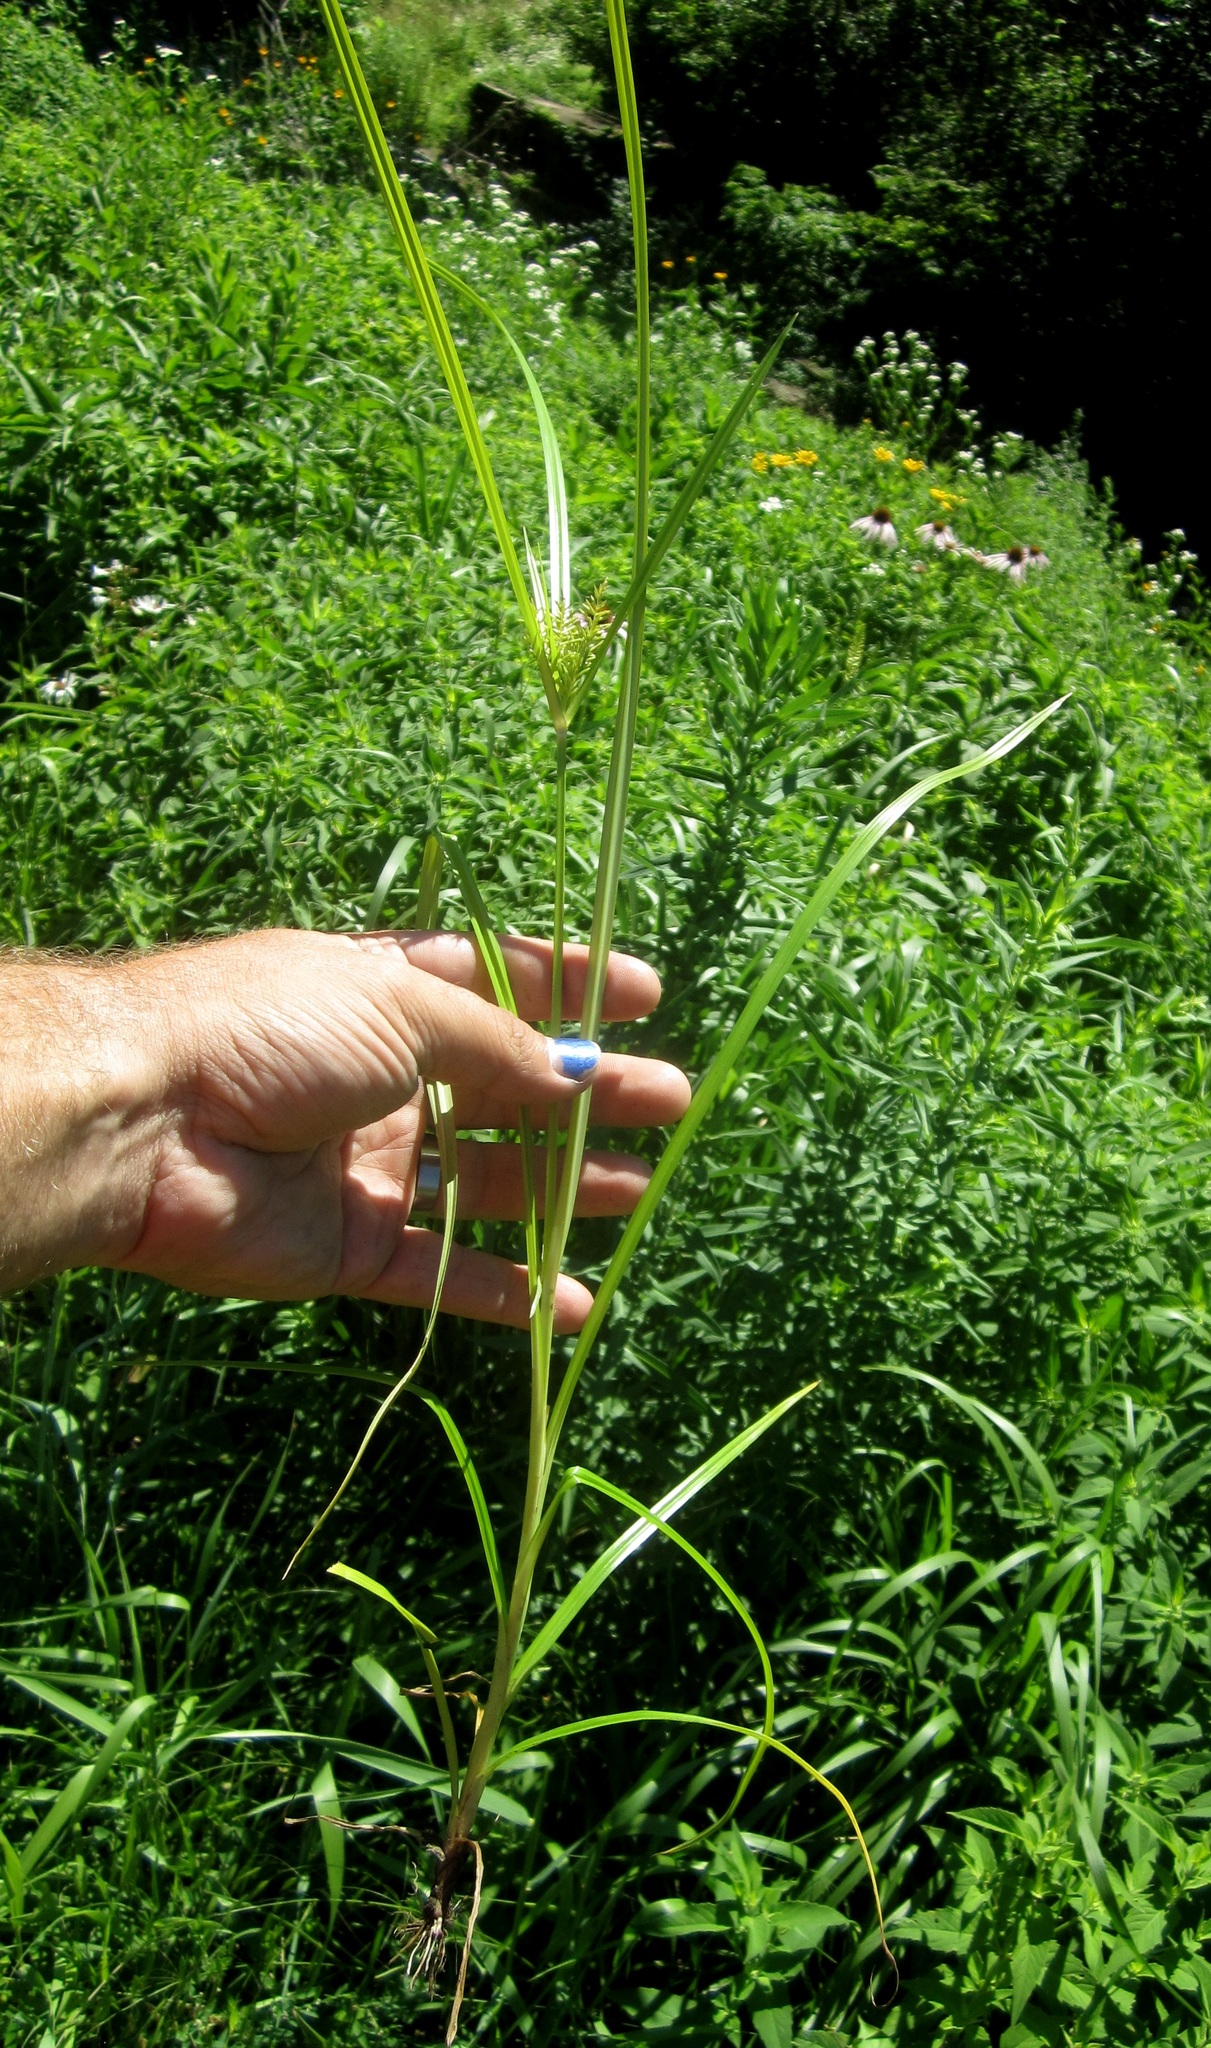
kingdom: Plantae
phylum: Tracheophyta
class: Liliopsida
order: Poales
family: Cyperaceae
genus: Cyperus
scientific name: Cyperus esculentus
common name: Yellow nutsedge
